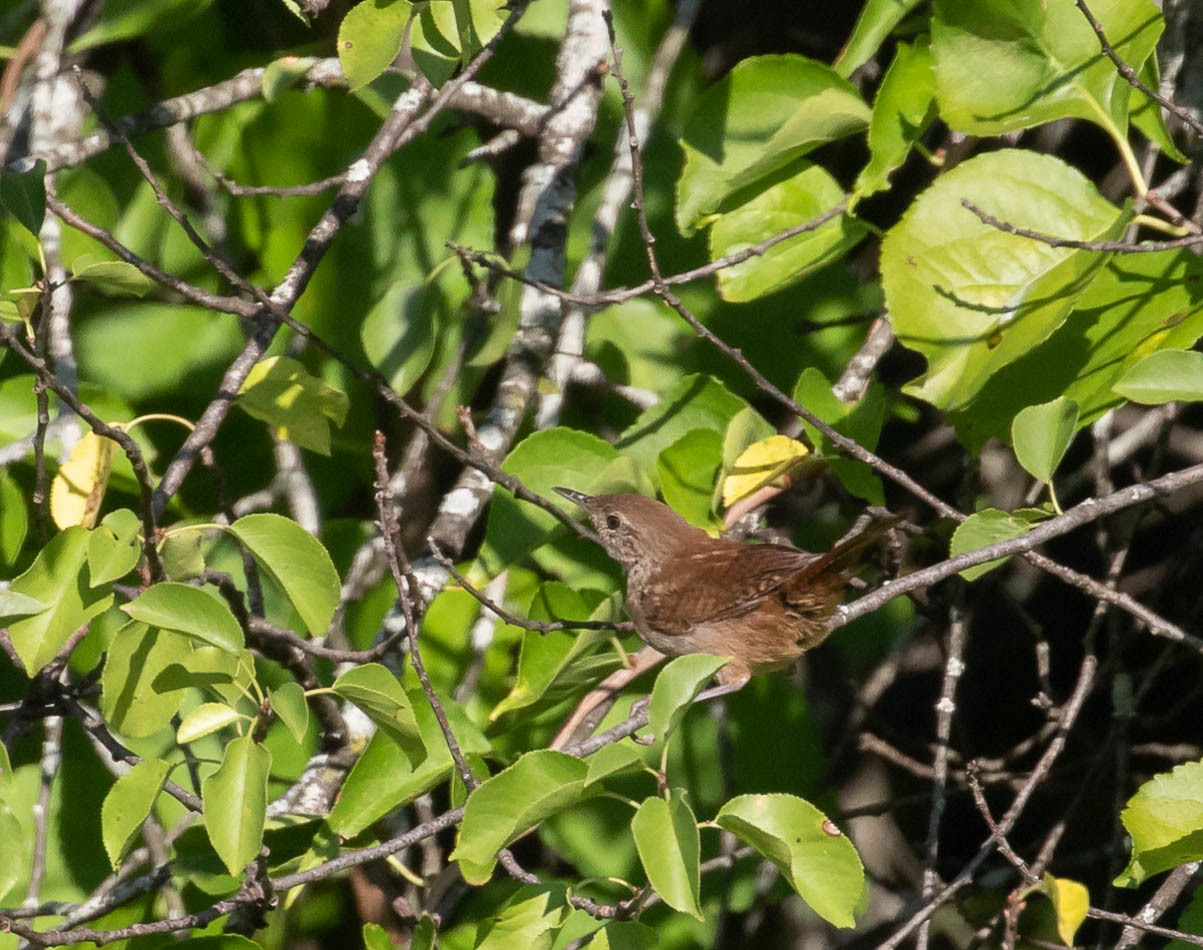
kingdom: Animalia
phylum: Chordata
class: Aves
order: Passeriformes
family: Troglodytidae
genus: Troglodytes
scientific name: Troglodytes aedon
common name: House wren
